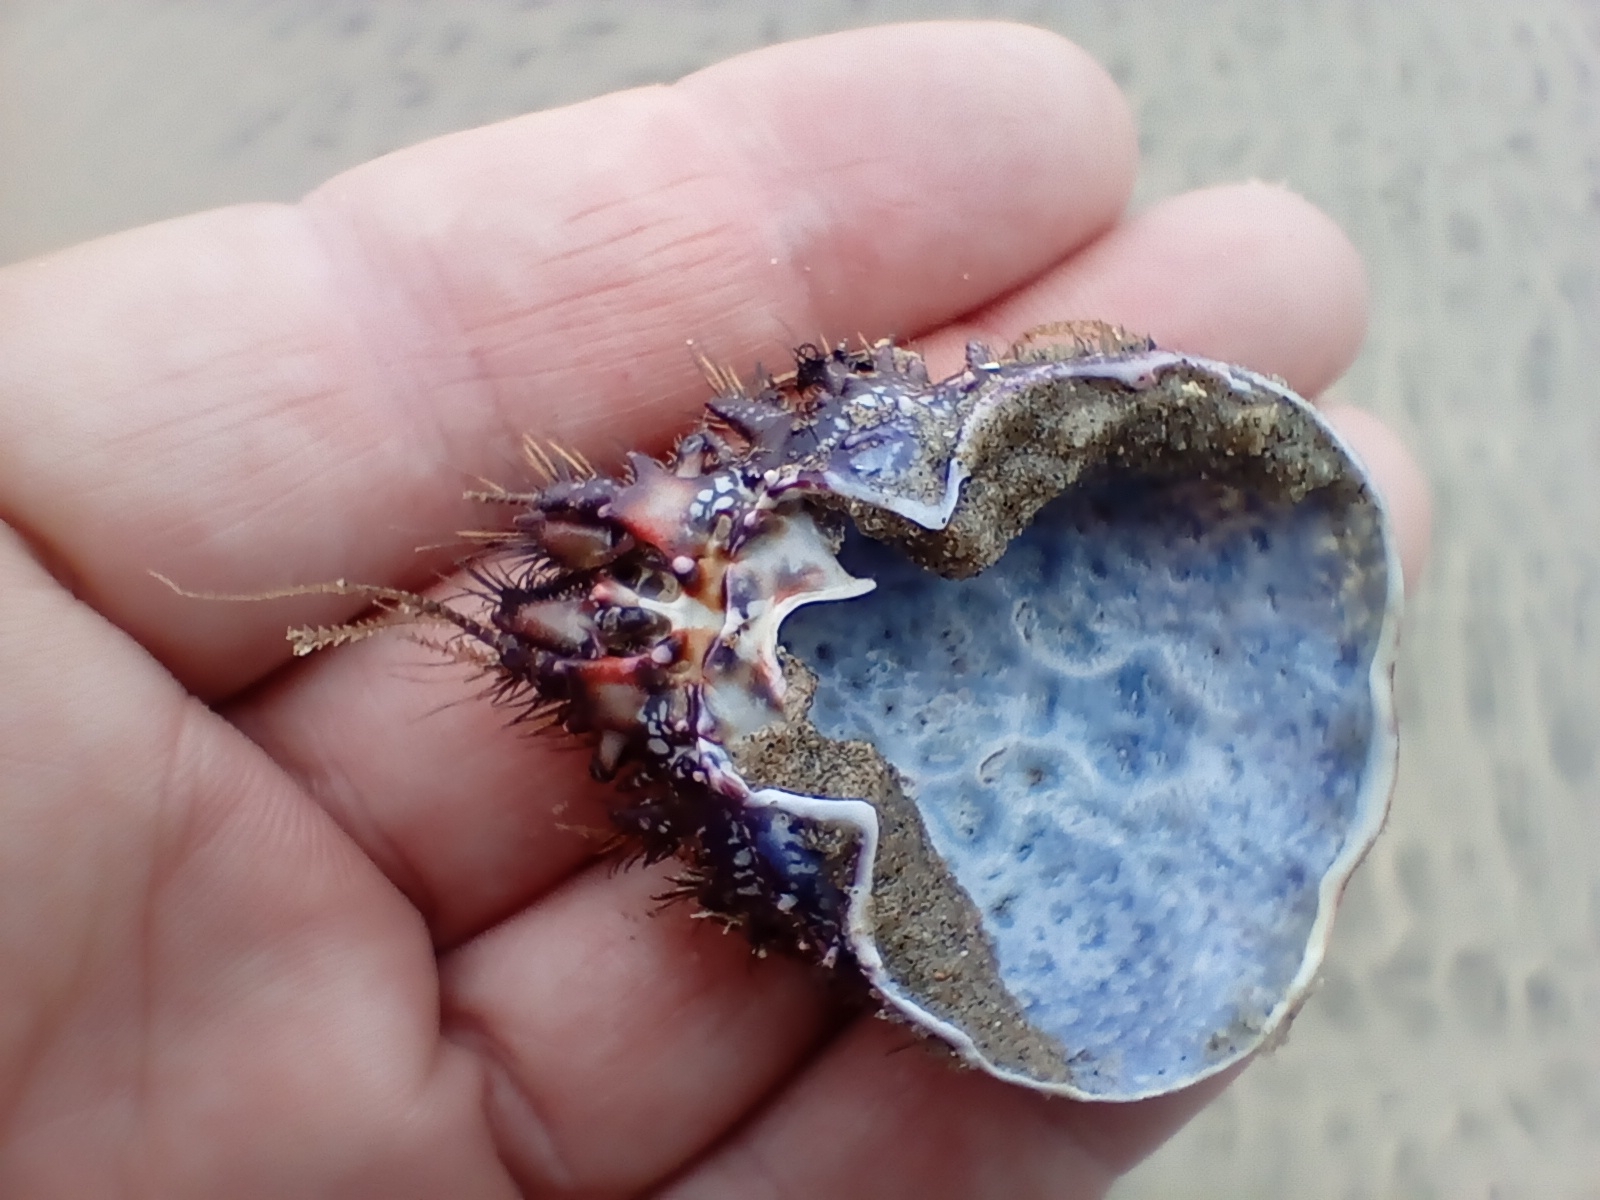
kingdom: Animalia
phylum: Arthropoda
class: Malacostraca
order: Decapoda
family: Majidae
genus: Notomithrax
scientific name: Notomithrax ursus
